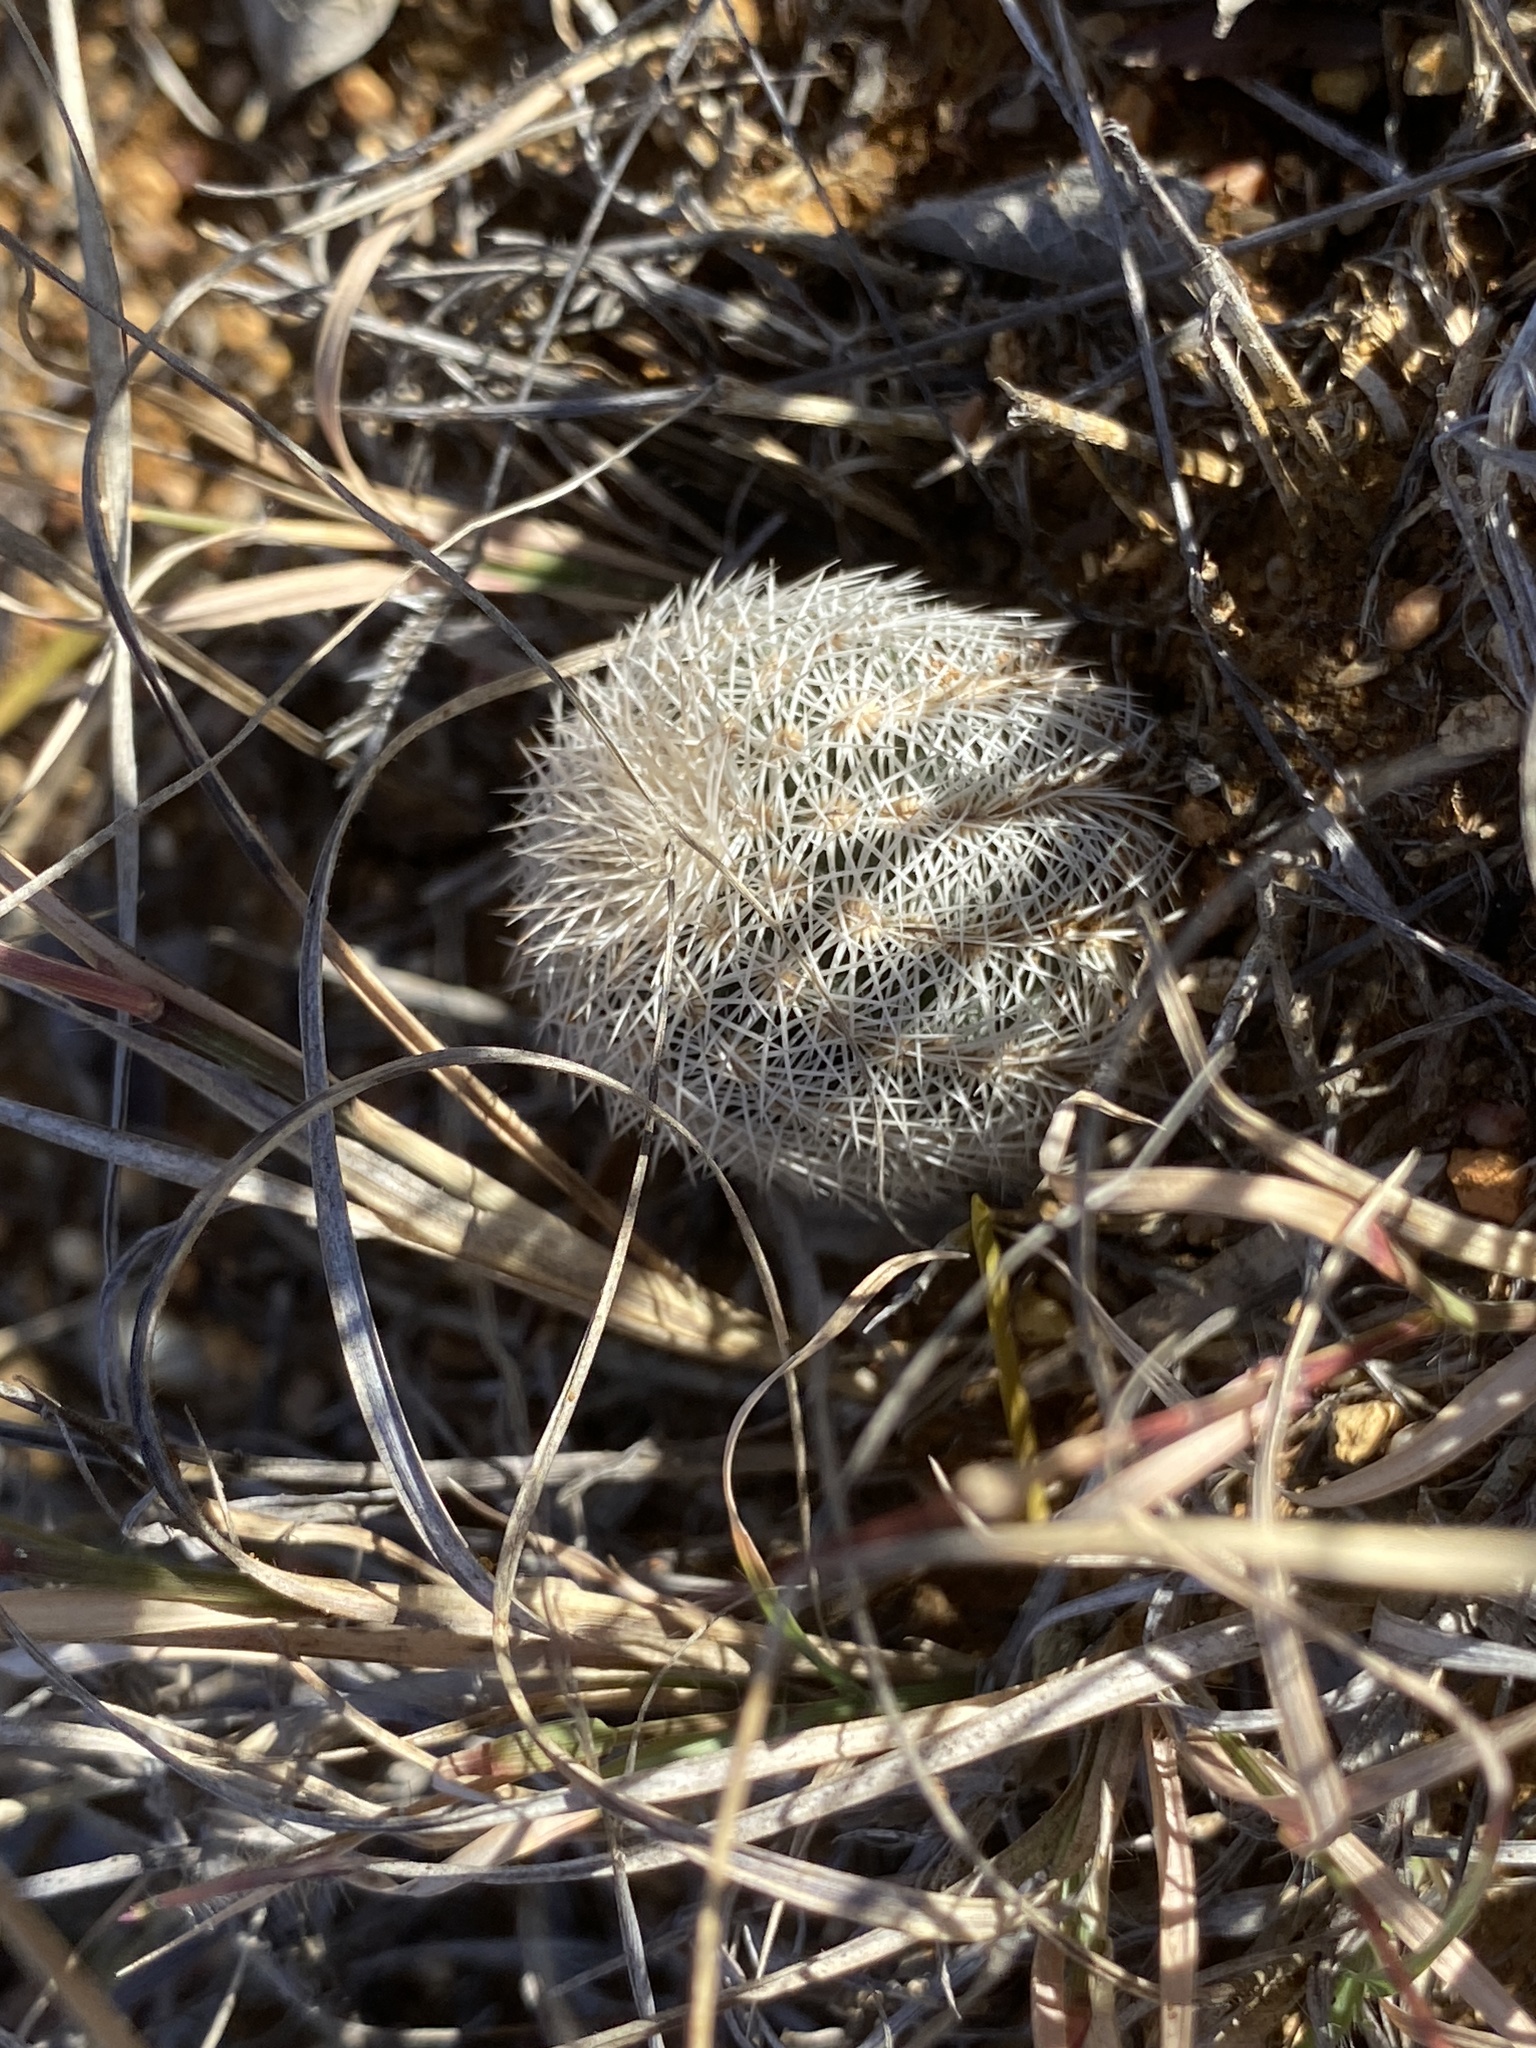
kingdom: Plantae
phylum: Tracheophyta
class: Magnoliopsida
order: Caryophyllales
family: Cactaceae
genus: Echinocereus
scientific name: Echinocereus reichenbachii
